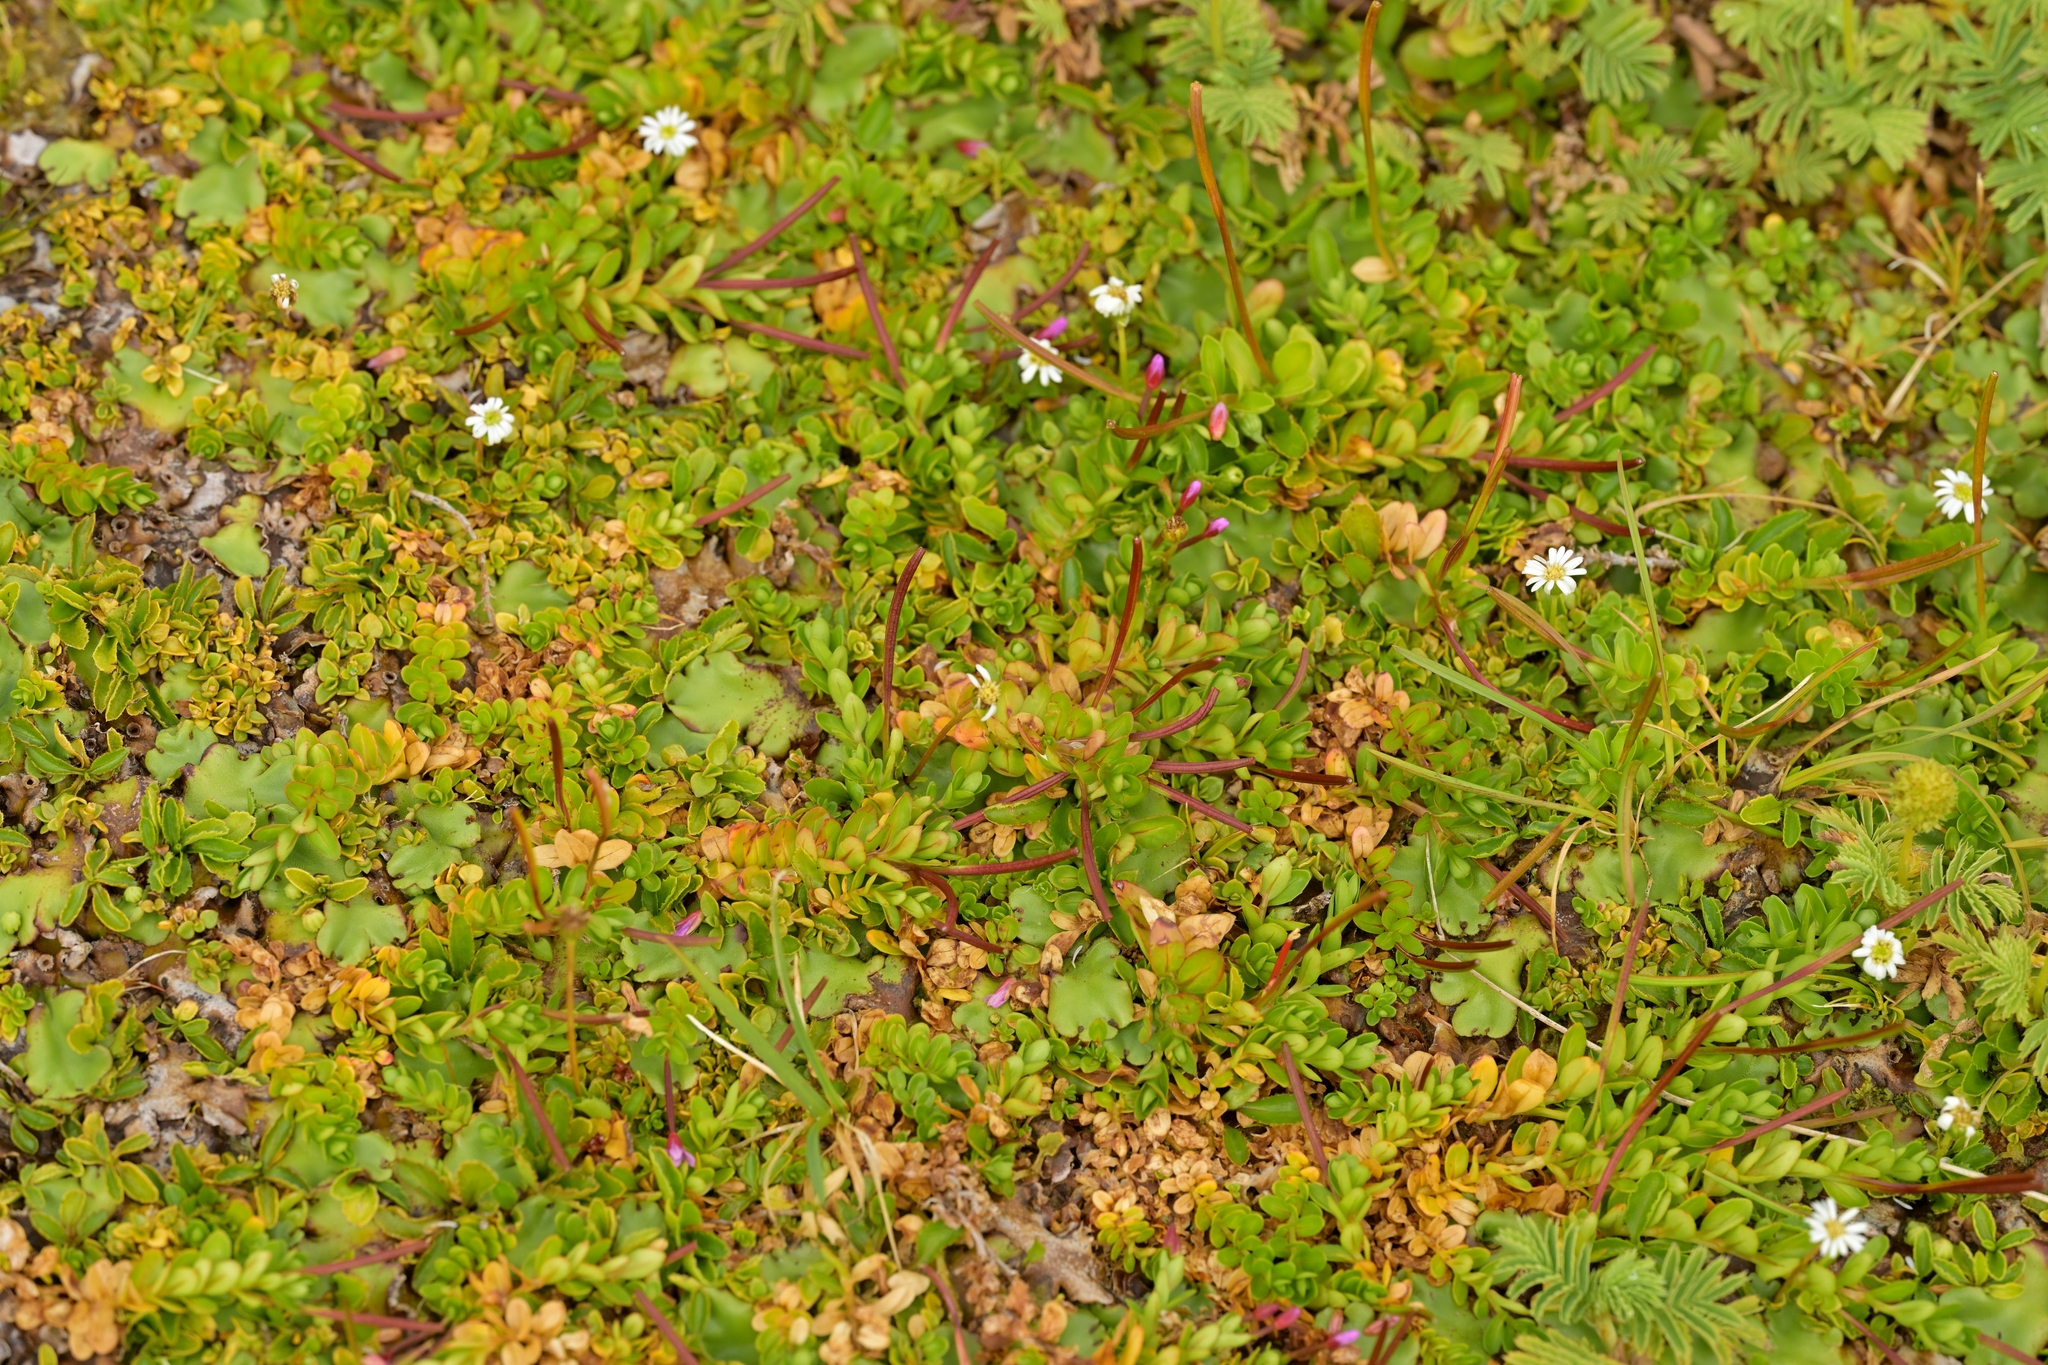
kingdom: Plantae
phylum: Tracheophyta
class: Magnoliopsida
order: Myrtales
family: Onagraceae
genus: Epilobium
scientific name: Epilobium confertifolium
